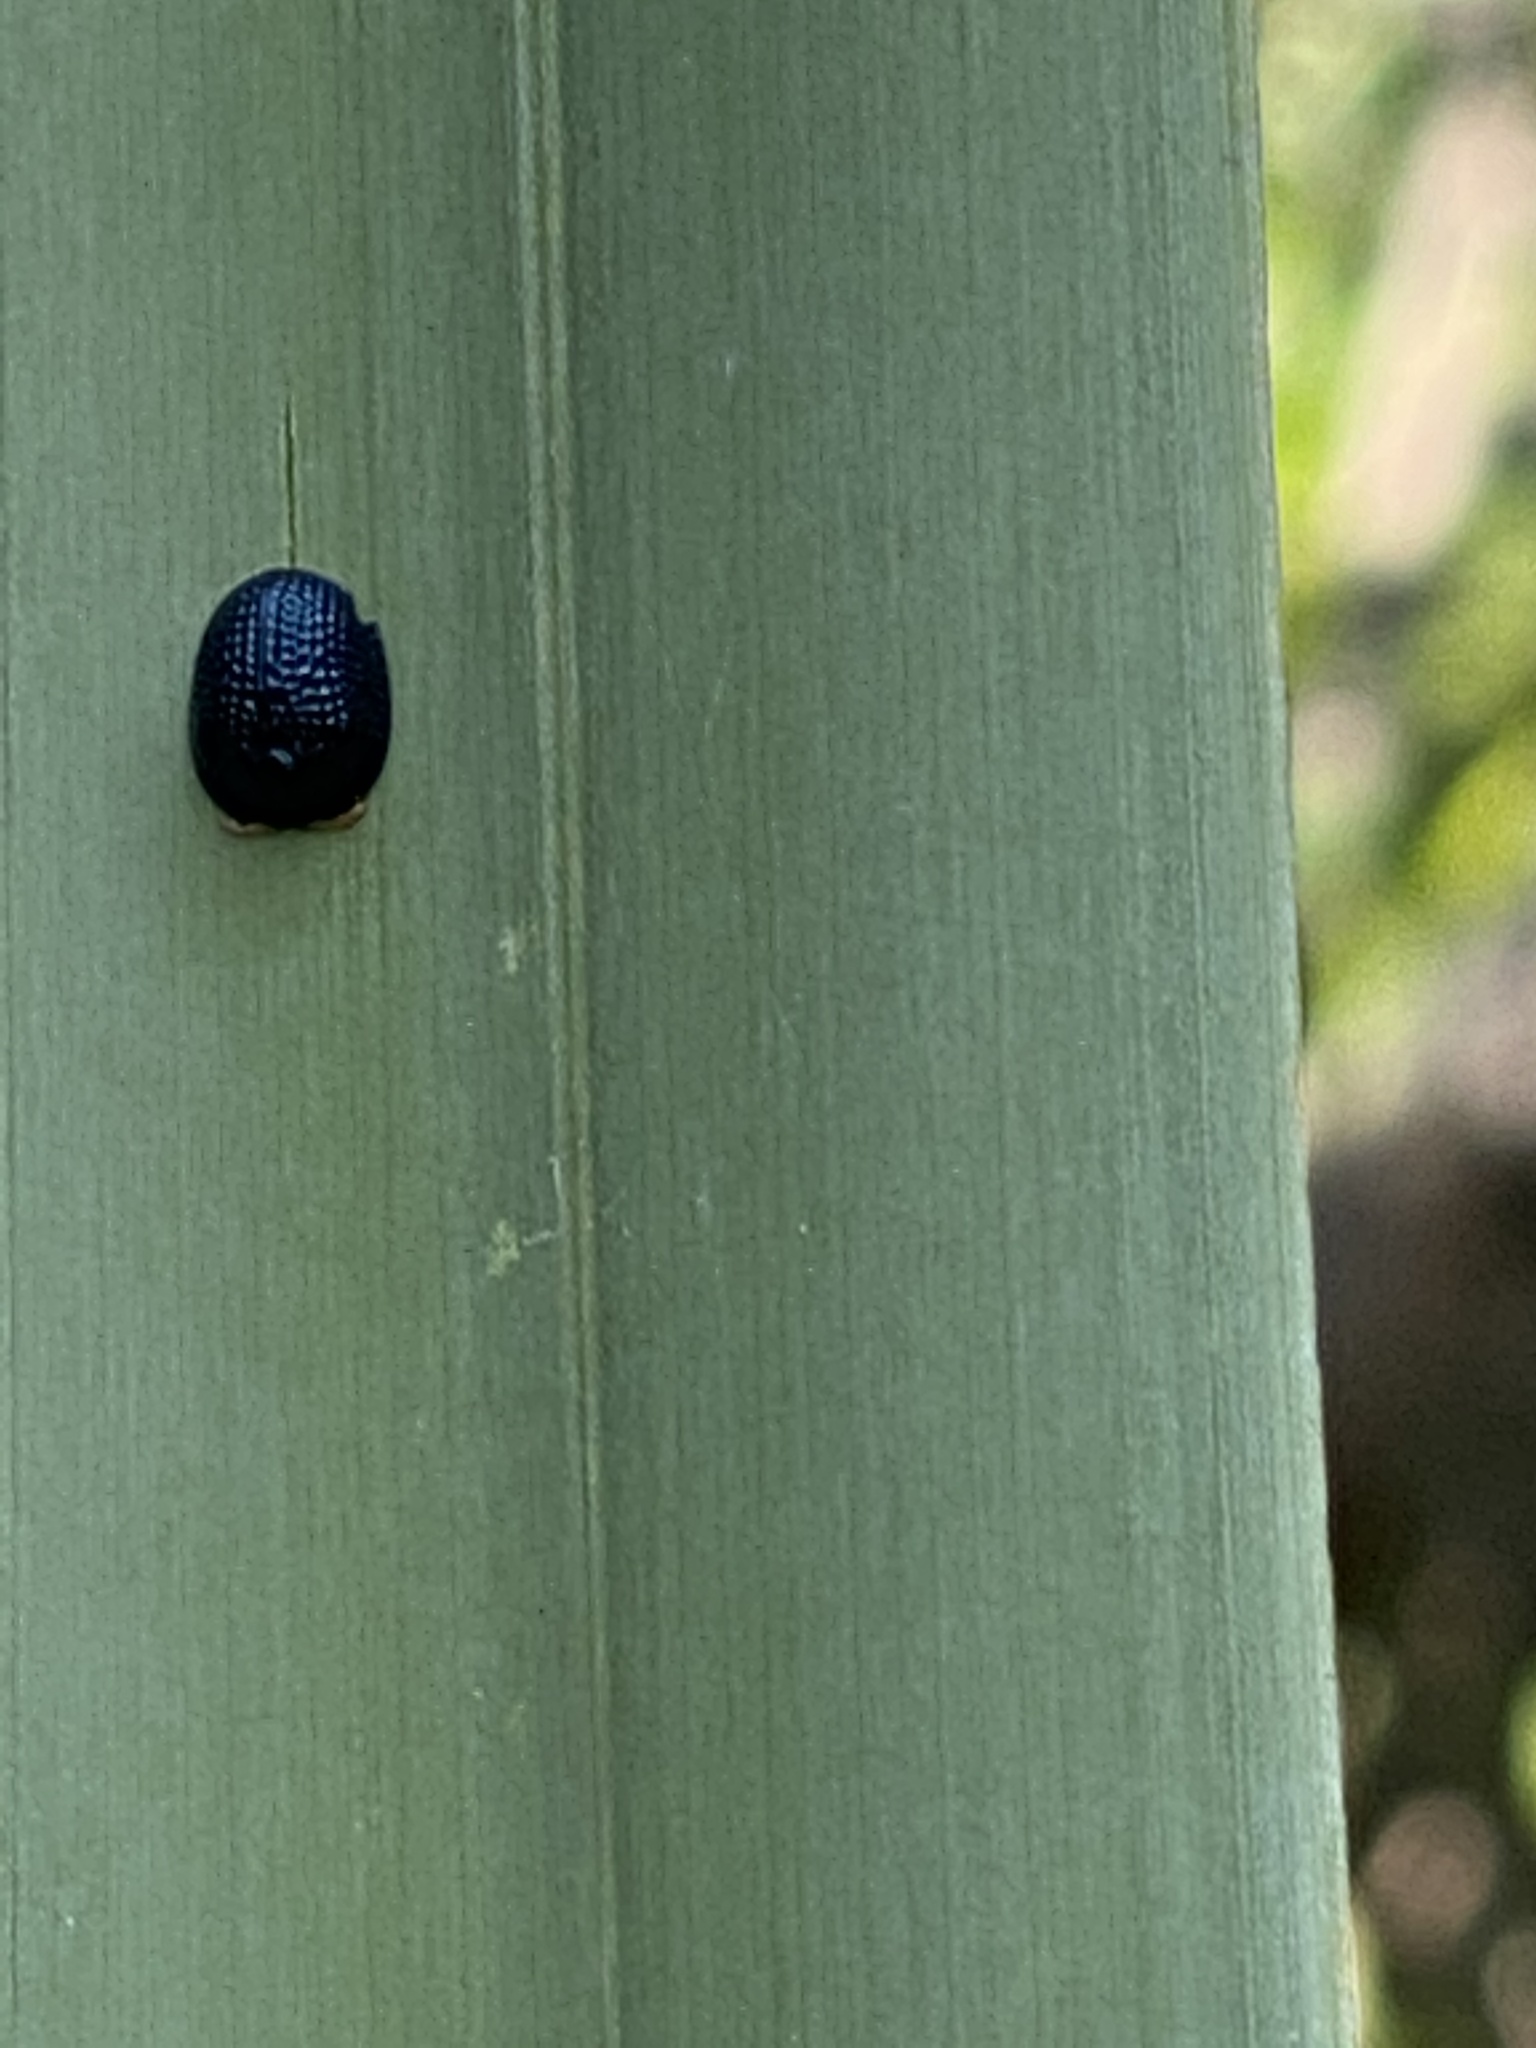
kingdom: Animalia
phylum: Arthropoda
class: Insecta
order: Coleoptera
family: Chrysomelidae
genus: Hemisphaerota
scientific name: Hemisphaerota cyanea
